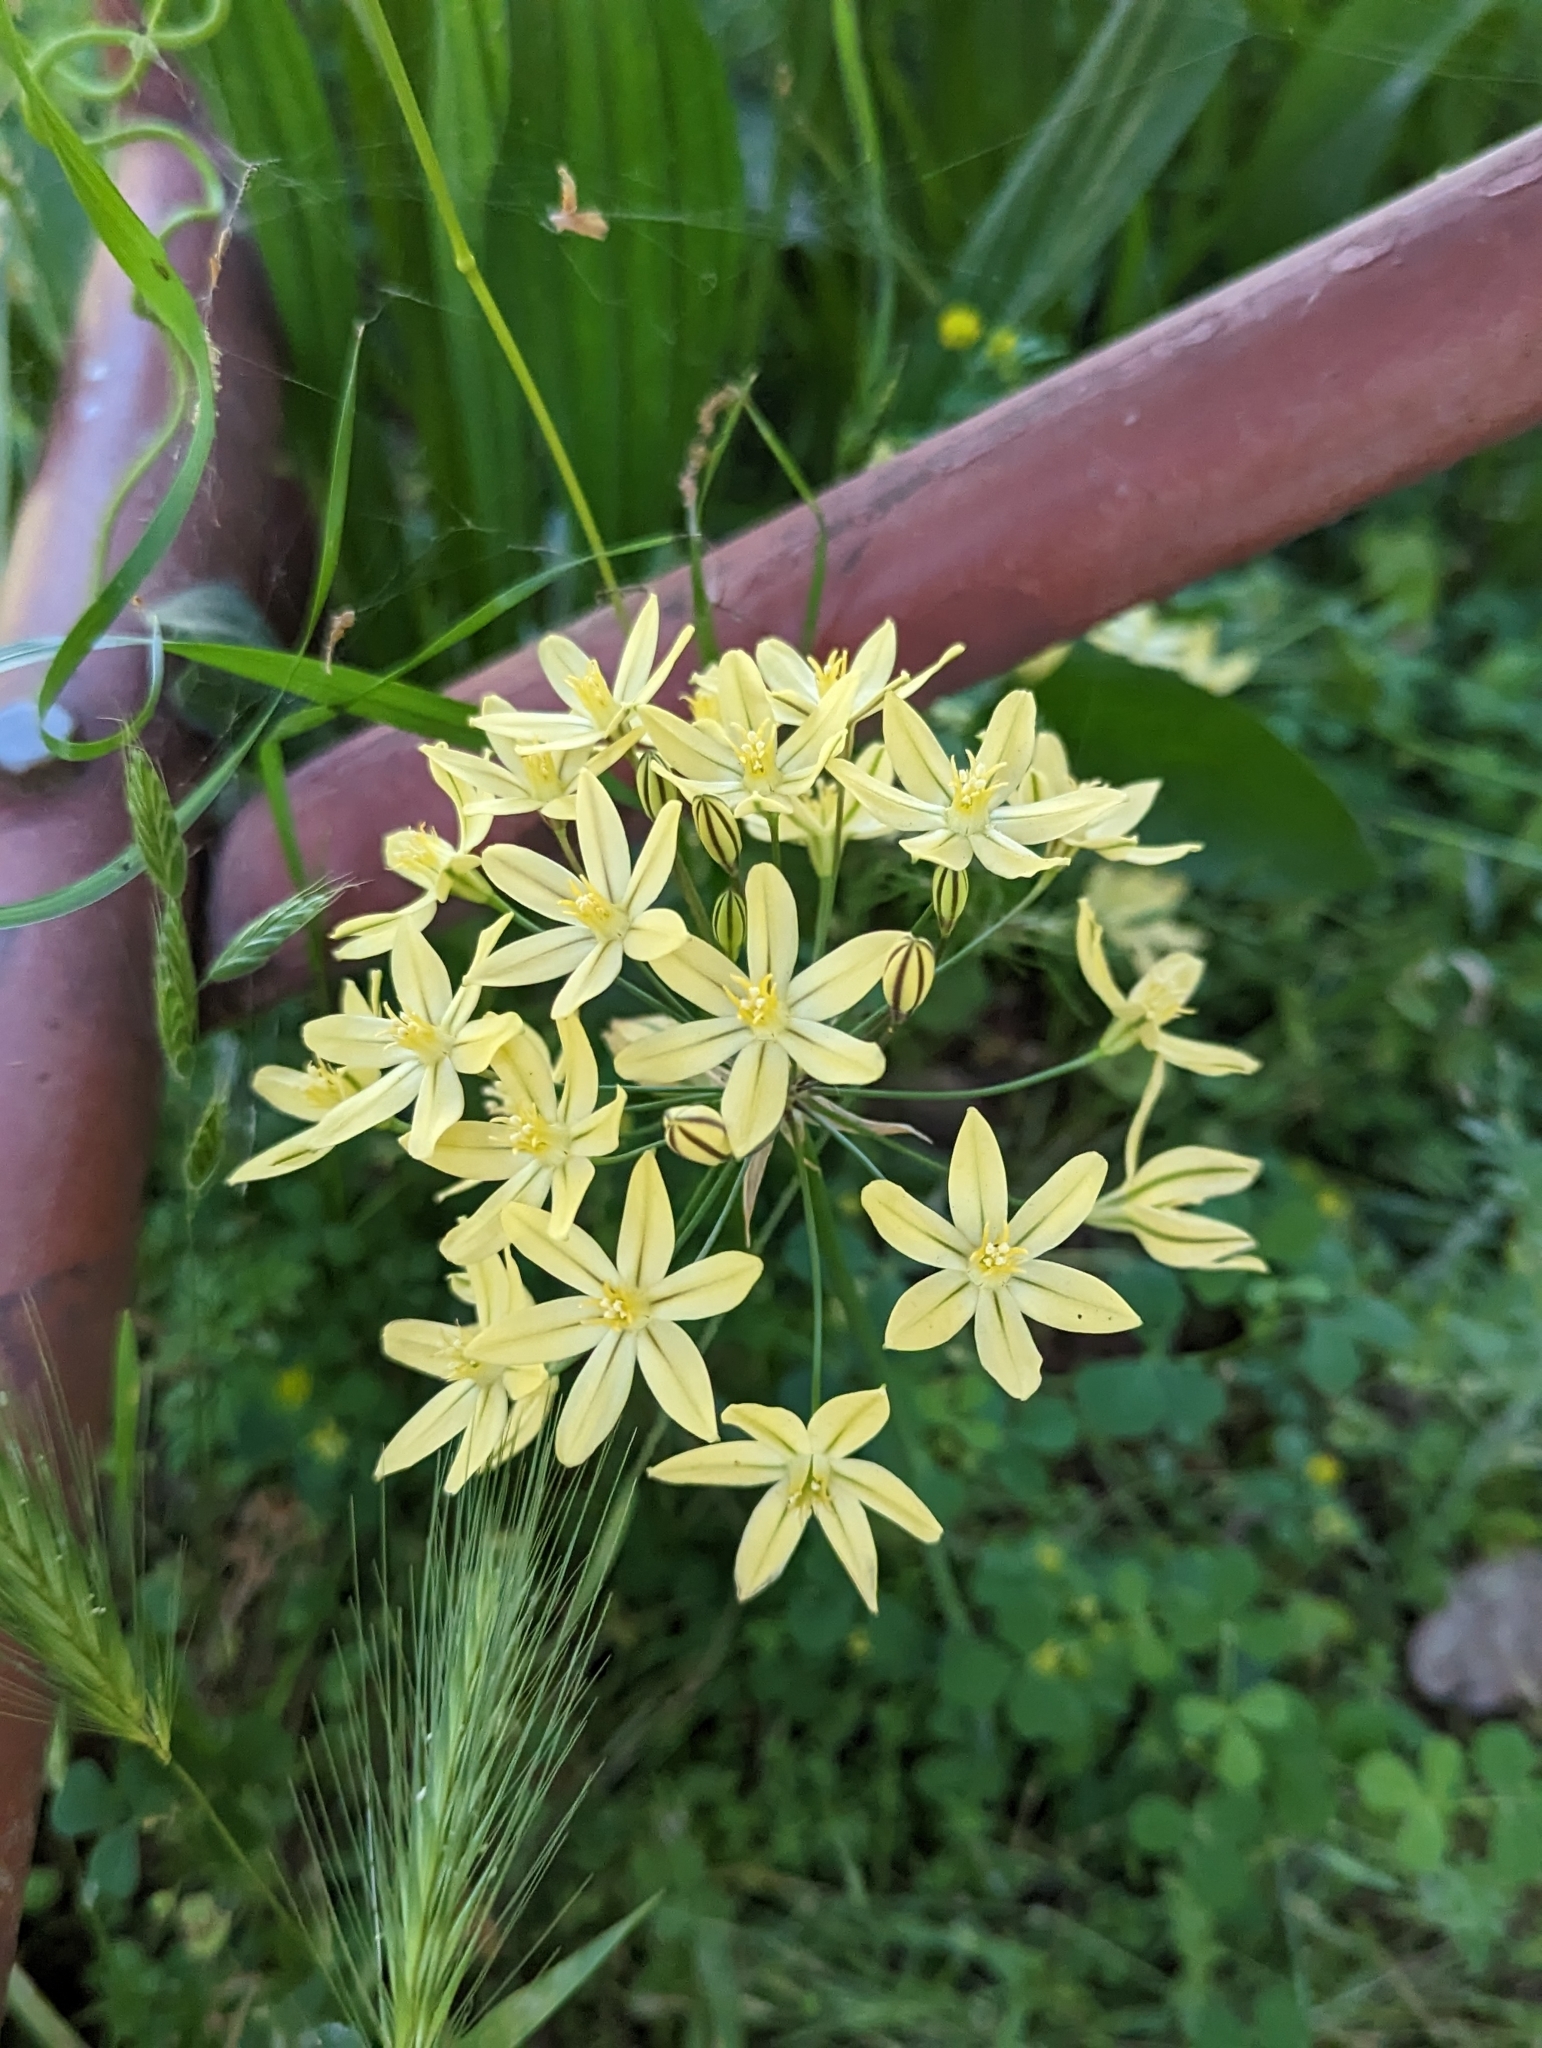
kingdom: Plantae
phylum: Tracheophyta
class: Liliopsida
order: Asparagales
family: Asparagaceae
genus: Triteleia
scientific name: Triteleia ixioides
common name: Yellow-brodiaea
